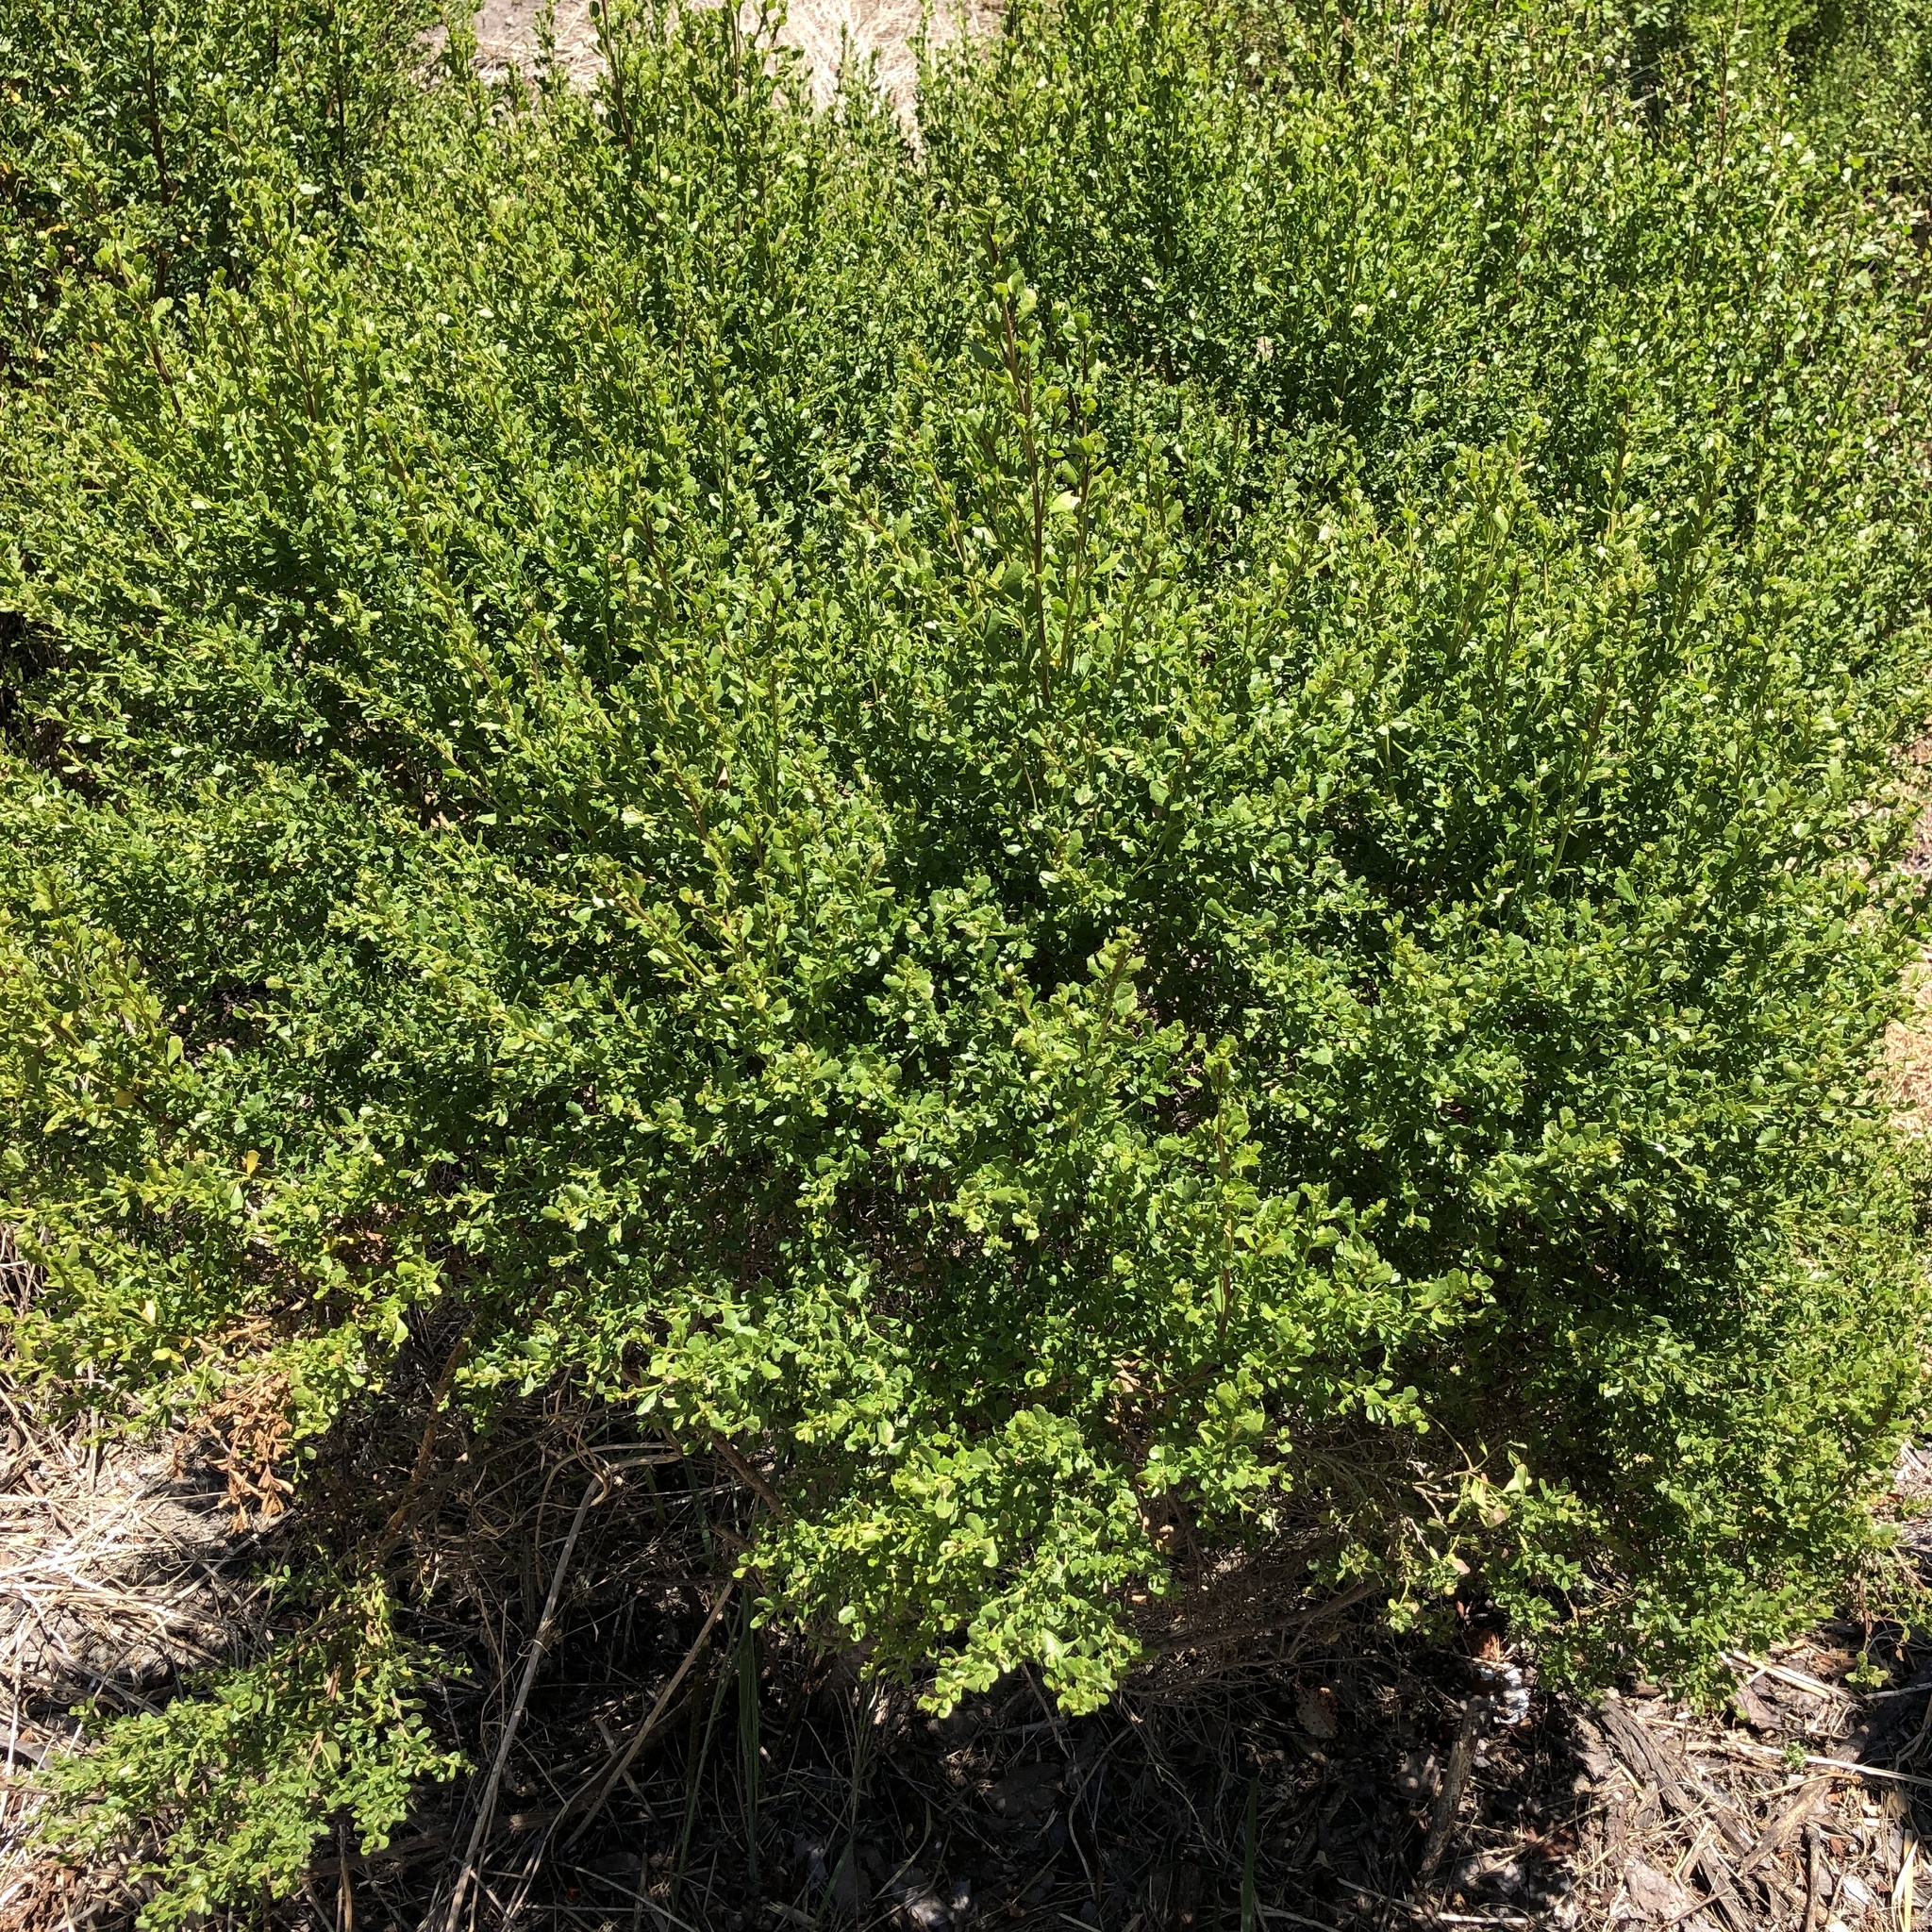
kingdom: Plantae
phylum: Tracheophyta
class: Magnoliopsida
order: Asterales
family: Asteraceae
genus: Baccharis
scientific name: Baccharis pilularis
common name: Coyotebrush
